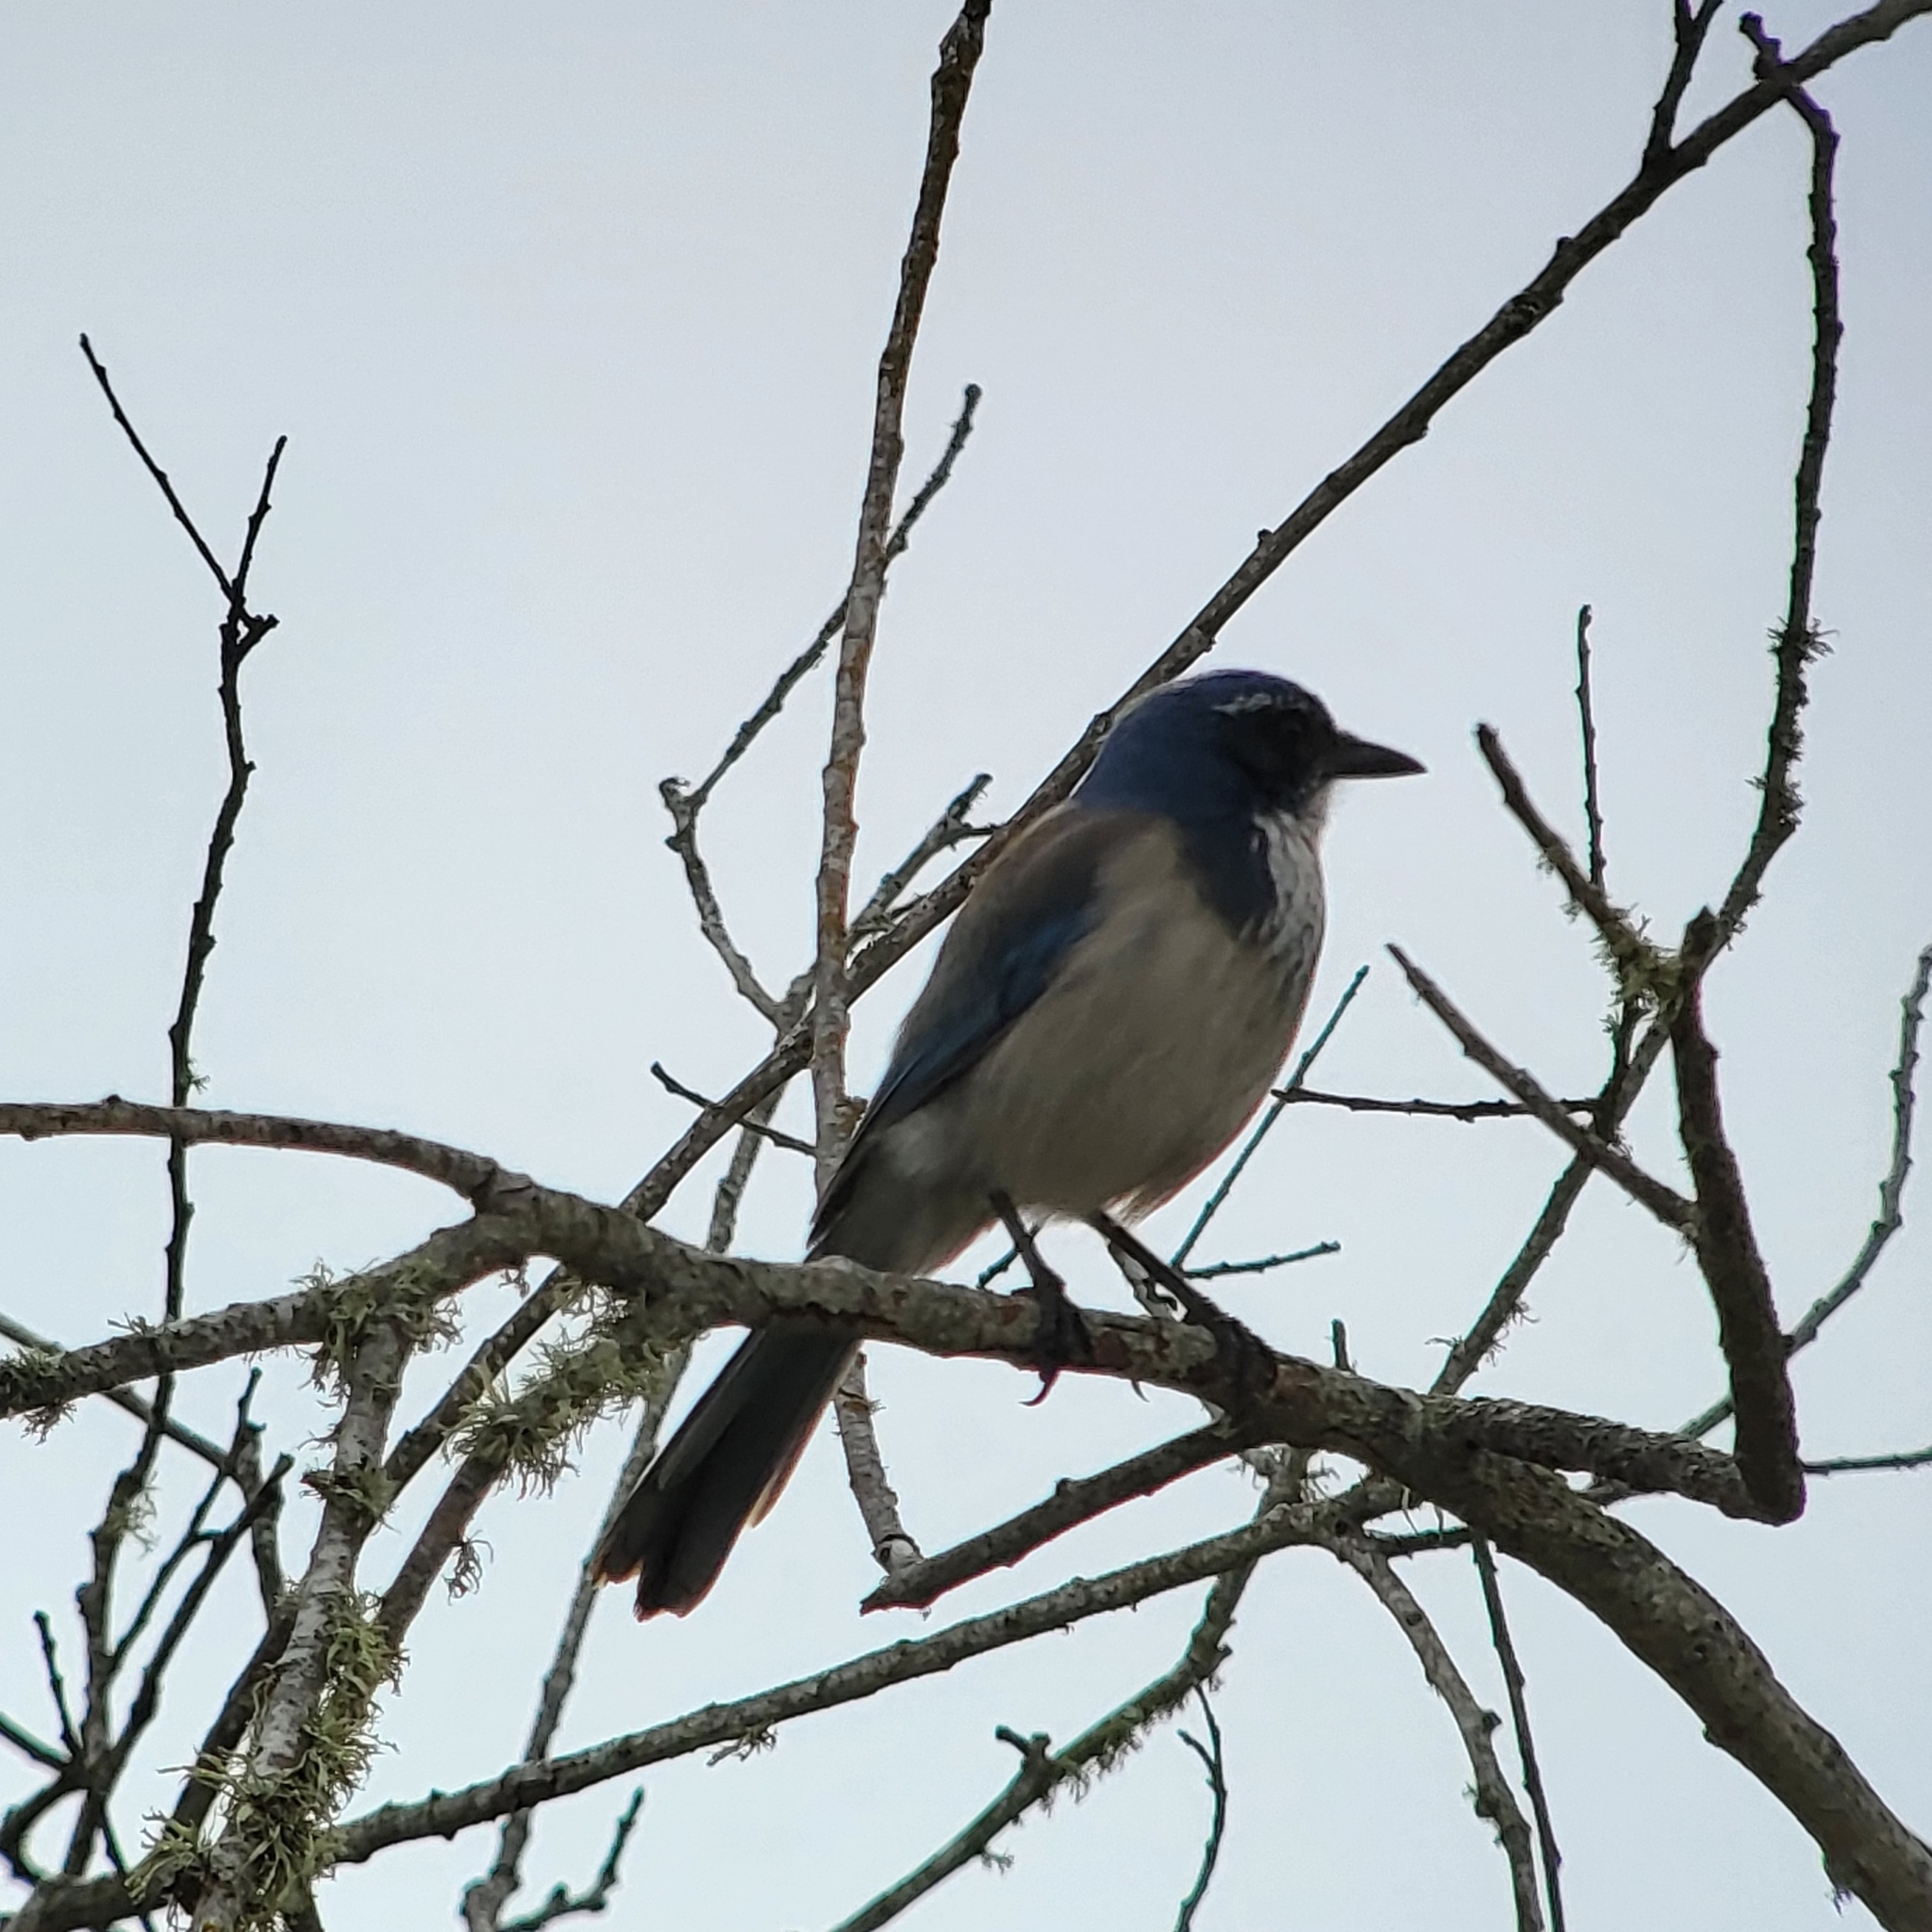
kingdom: Animalia
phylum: Chordata
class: Aves
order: Passeriformes
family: Corvidae
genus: Aphelocoma
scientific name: Aphelocoma californica
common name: California scrub-jay
